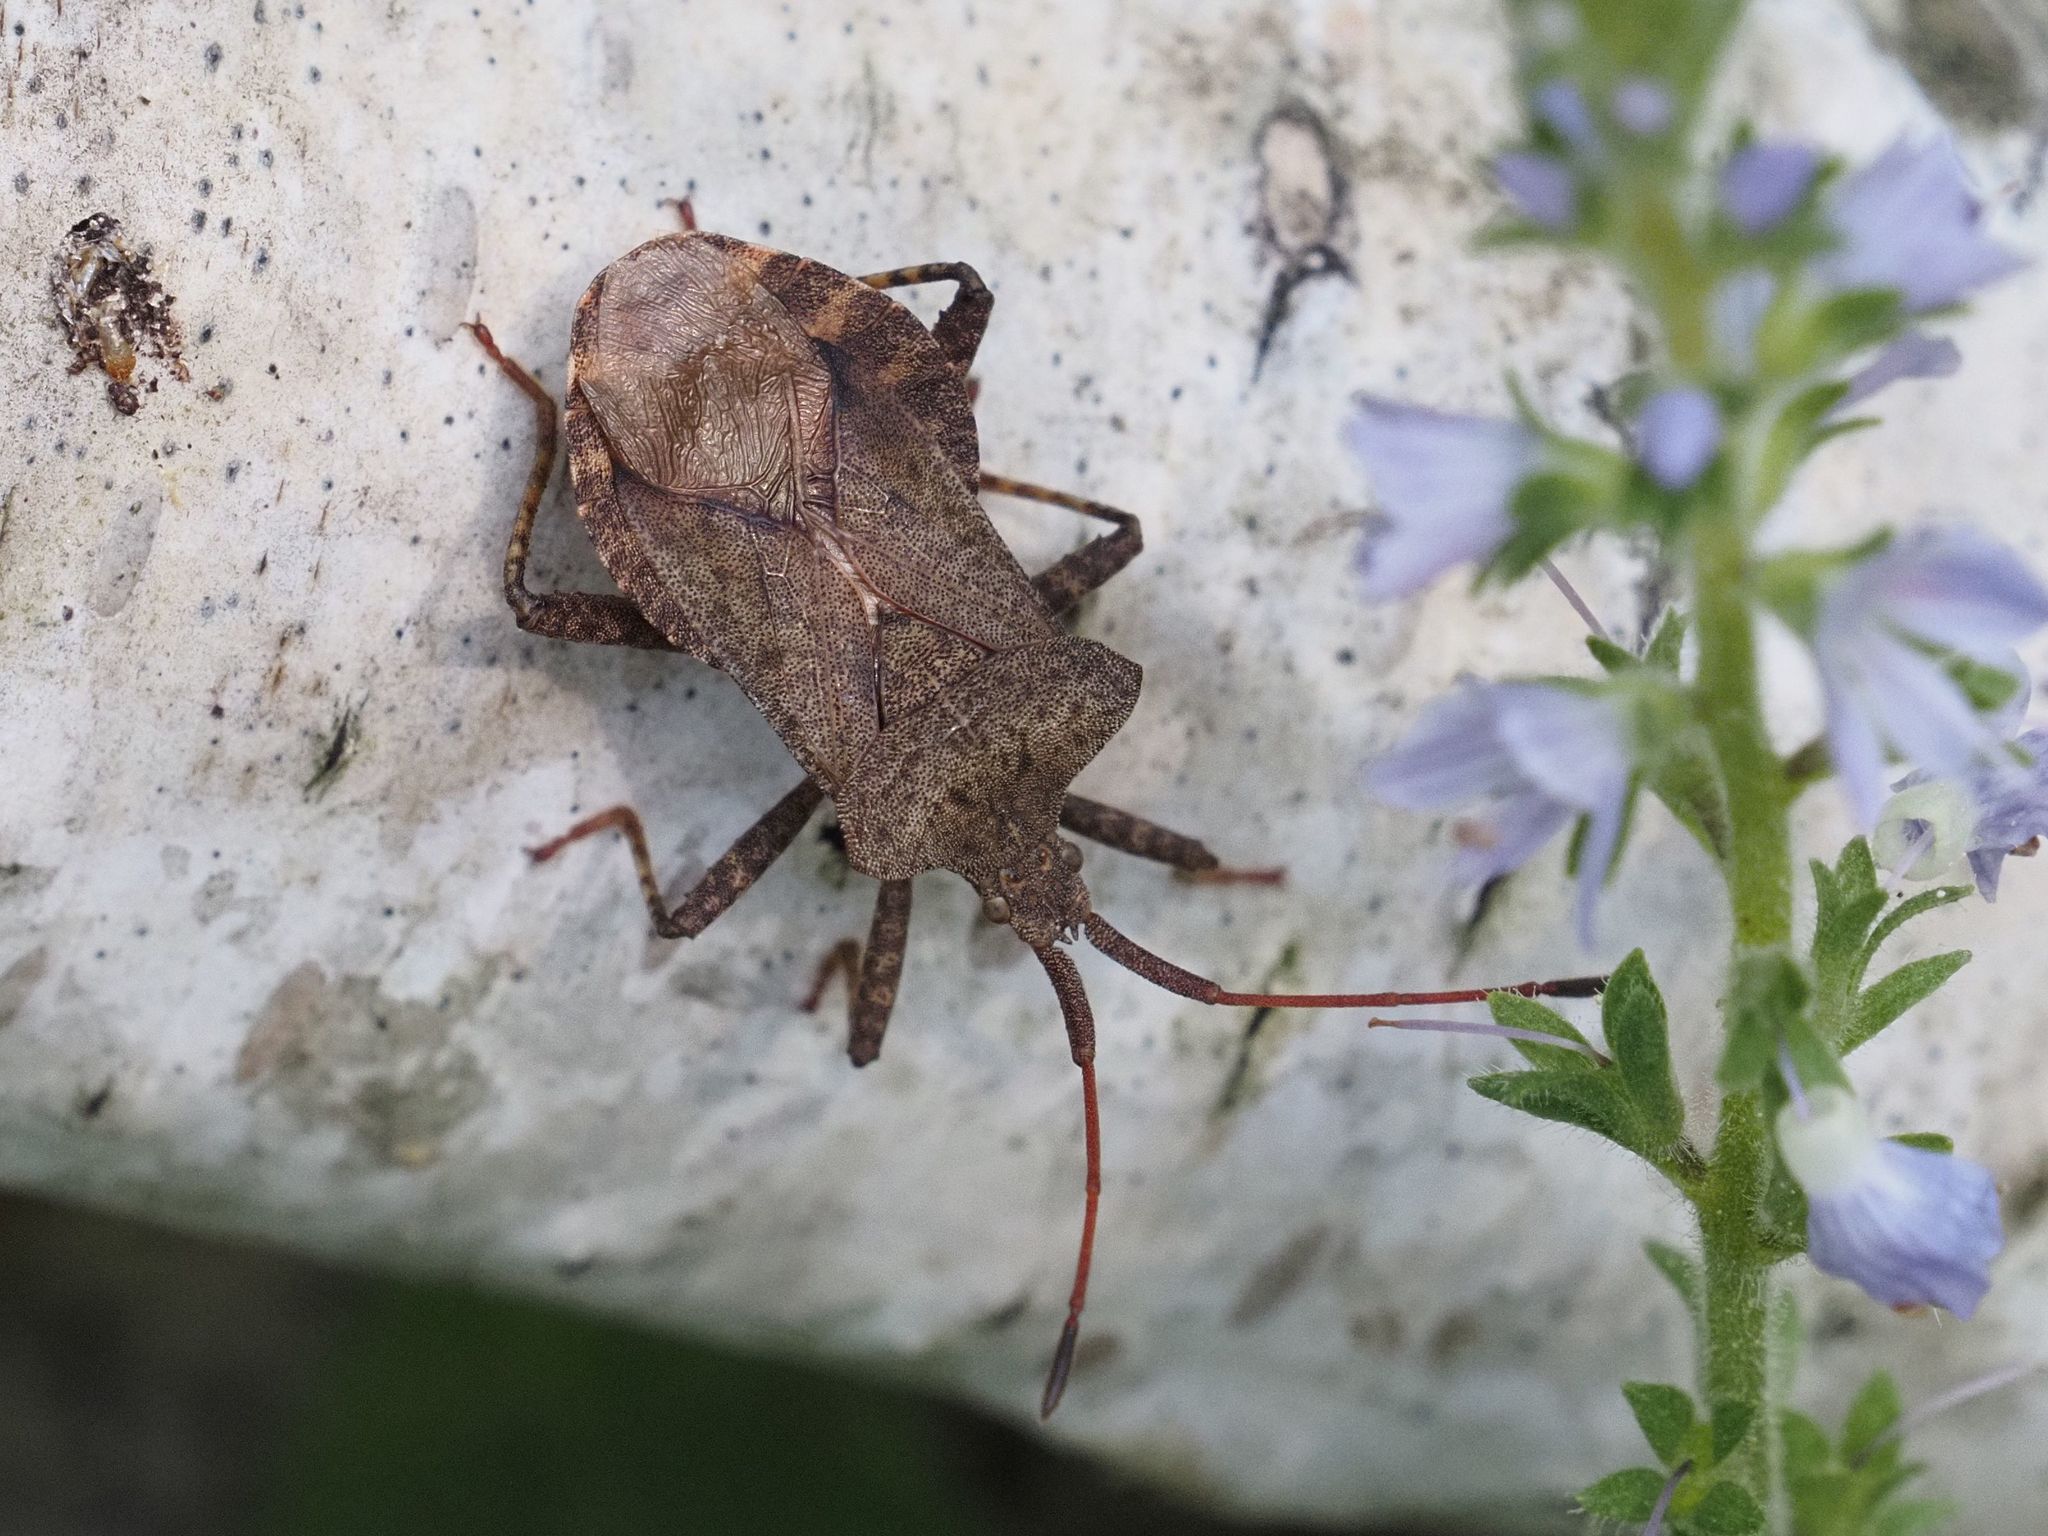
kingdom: Animalia
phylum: Arthropoda
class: Insecta
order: Hemiptera
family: Coreidae
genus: Coreus
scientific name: Coreus marginatus
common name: Dock bug
